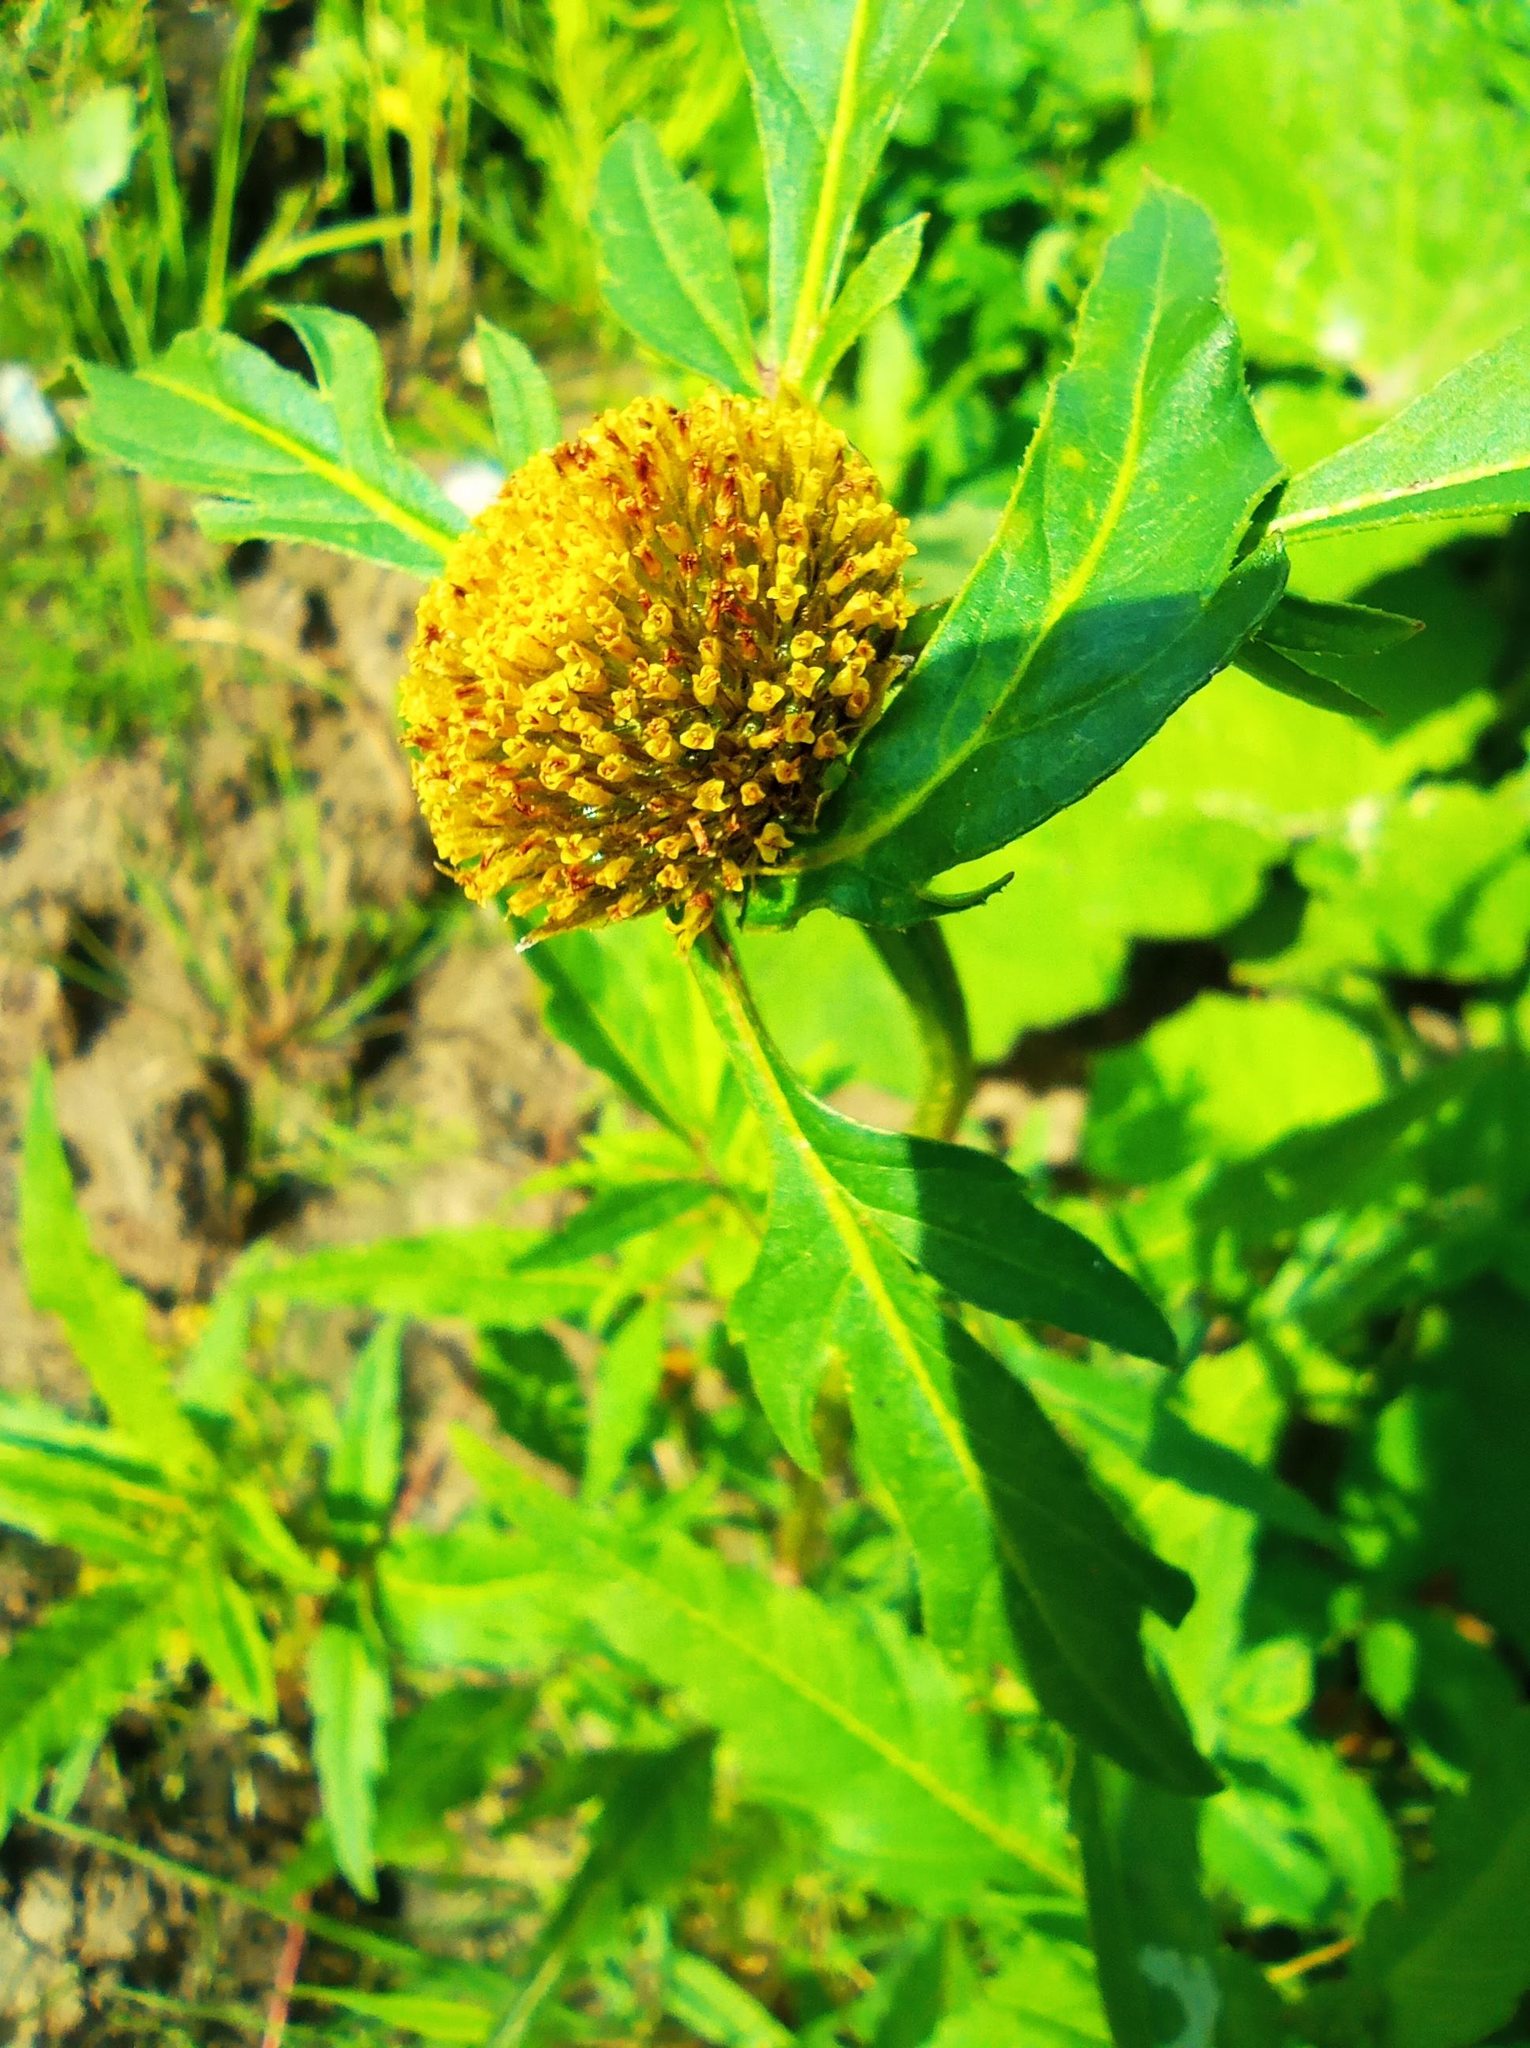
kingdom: Plantae
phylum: Tracheophyta
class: Magnoliopsida
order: Asterales
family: Asteraceae
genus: Bidens
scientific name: Bidens radiata
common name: Radiating bur-marigold
